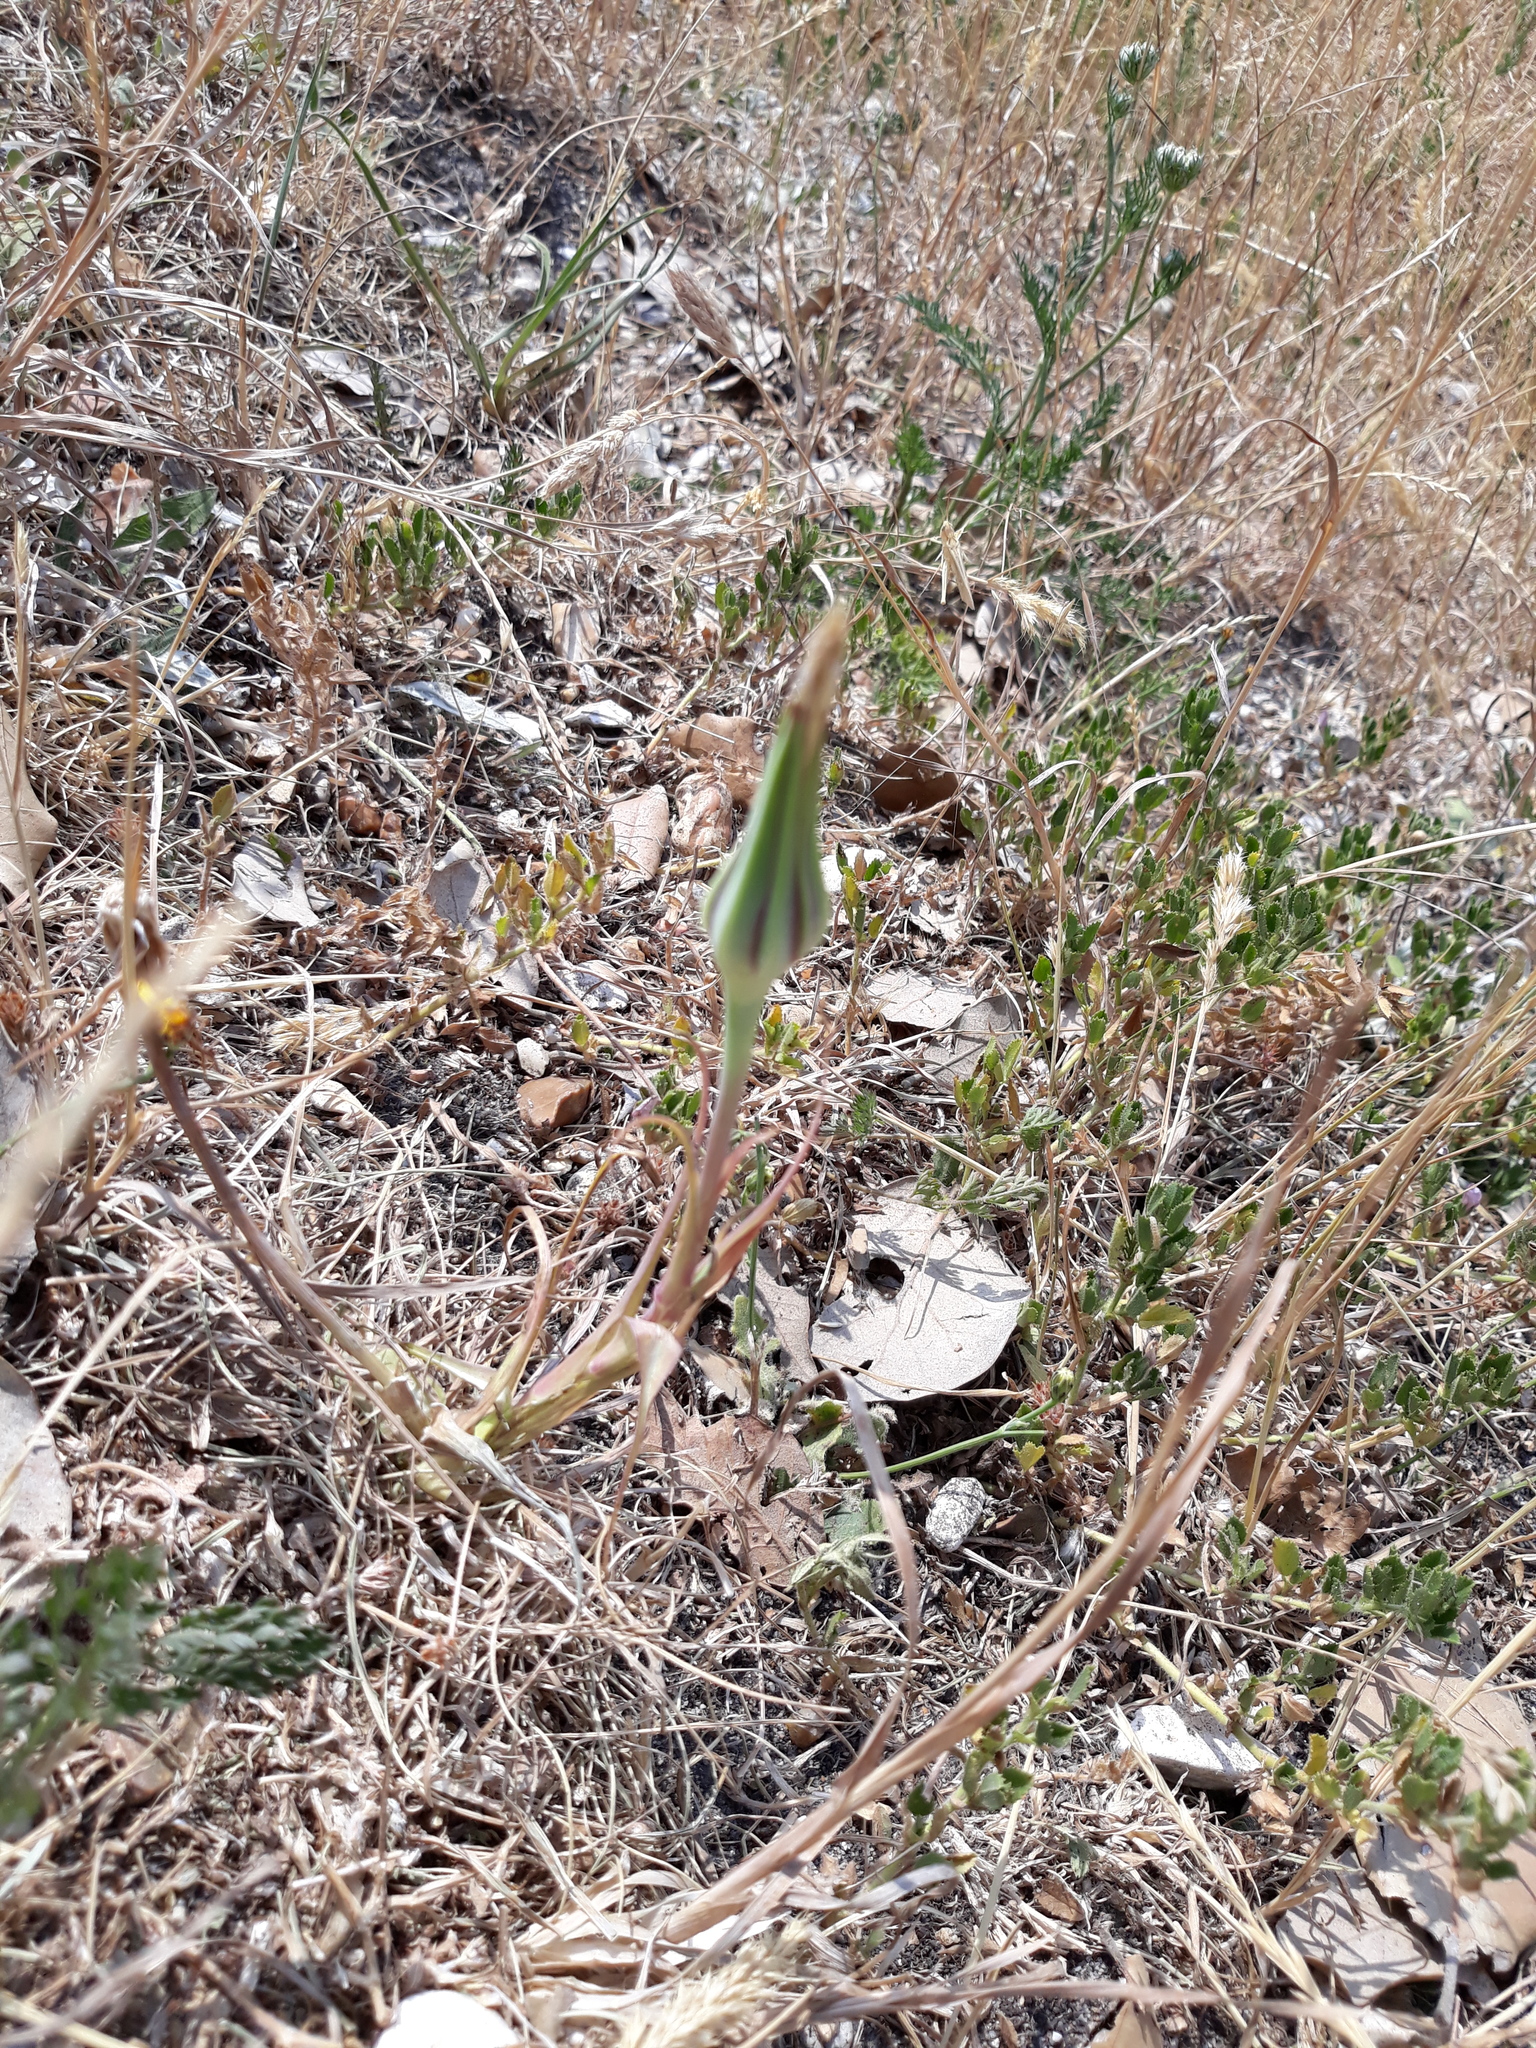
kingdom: Plantae
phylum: Tracheophyta
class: Magnoliopsida
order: Asterales
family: Asteraceae
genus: Tragopogon
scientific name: Tragopogon pratensis
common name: Goat's-beard
